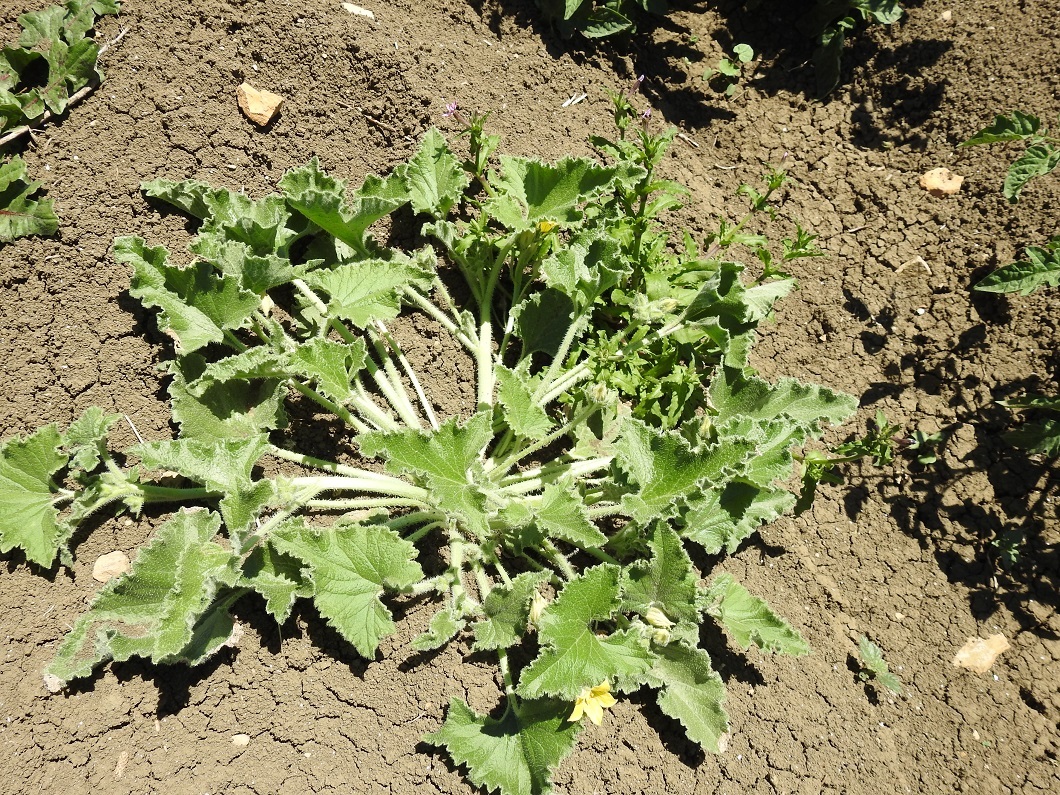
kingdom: Plantae
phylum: Tracheophyta
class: Magnoliopsida
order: Cucurbitales
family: Cucurbitaceae
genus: Ecballium
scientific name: Ecballium elaterium
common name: Squirting cucumber
